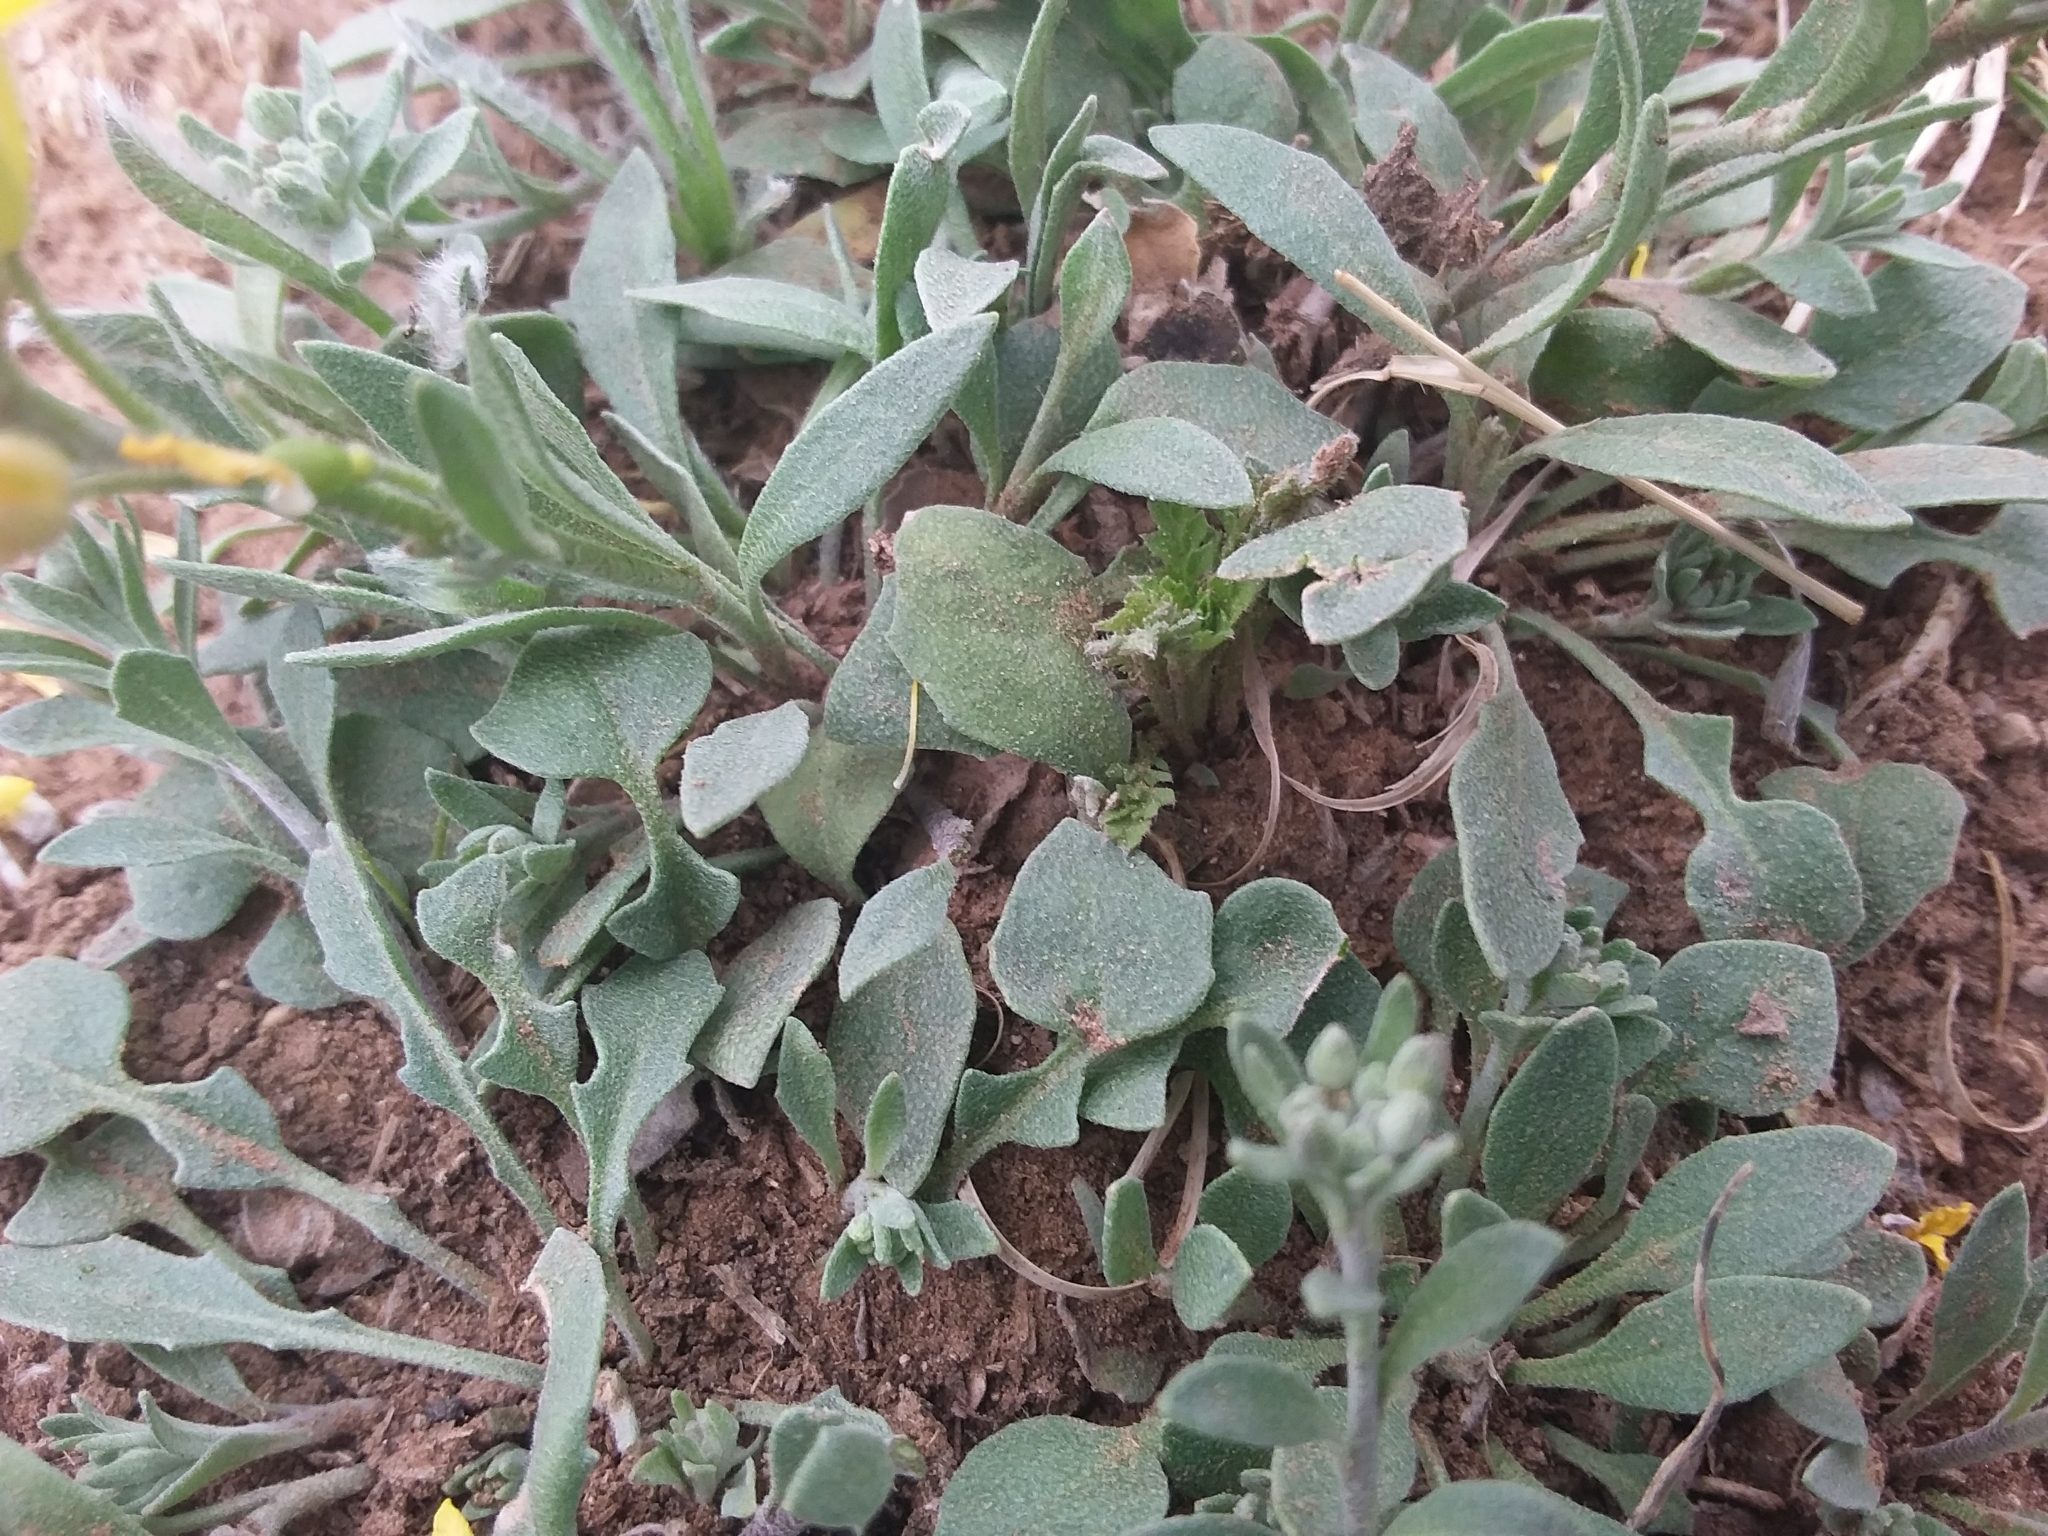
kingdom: Plantae
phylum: Tracheophyta
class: Magnoliopsida
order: Brassicales
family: Brassicaceae
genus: Physaria
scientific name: Physaria gordonii
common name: Gordon's bladderpod
